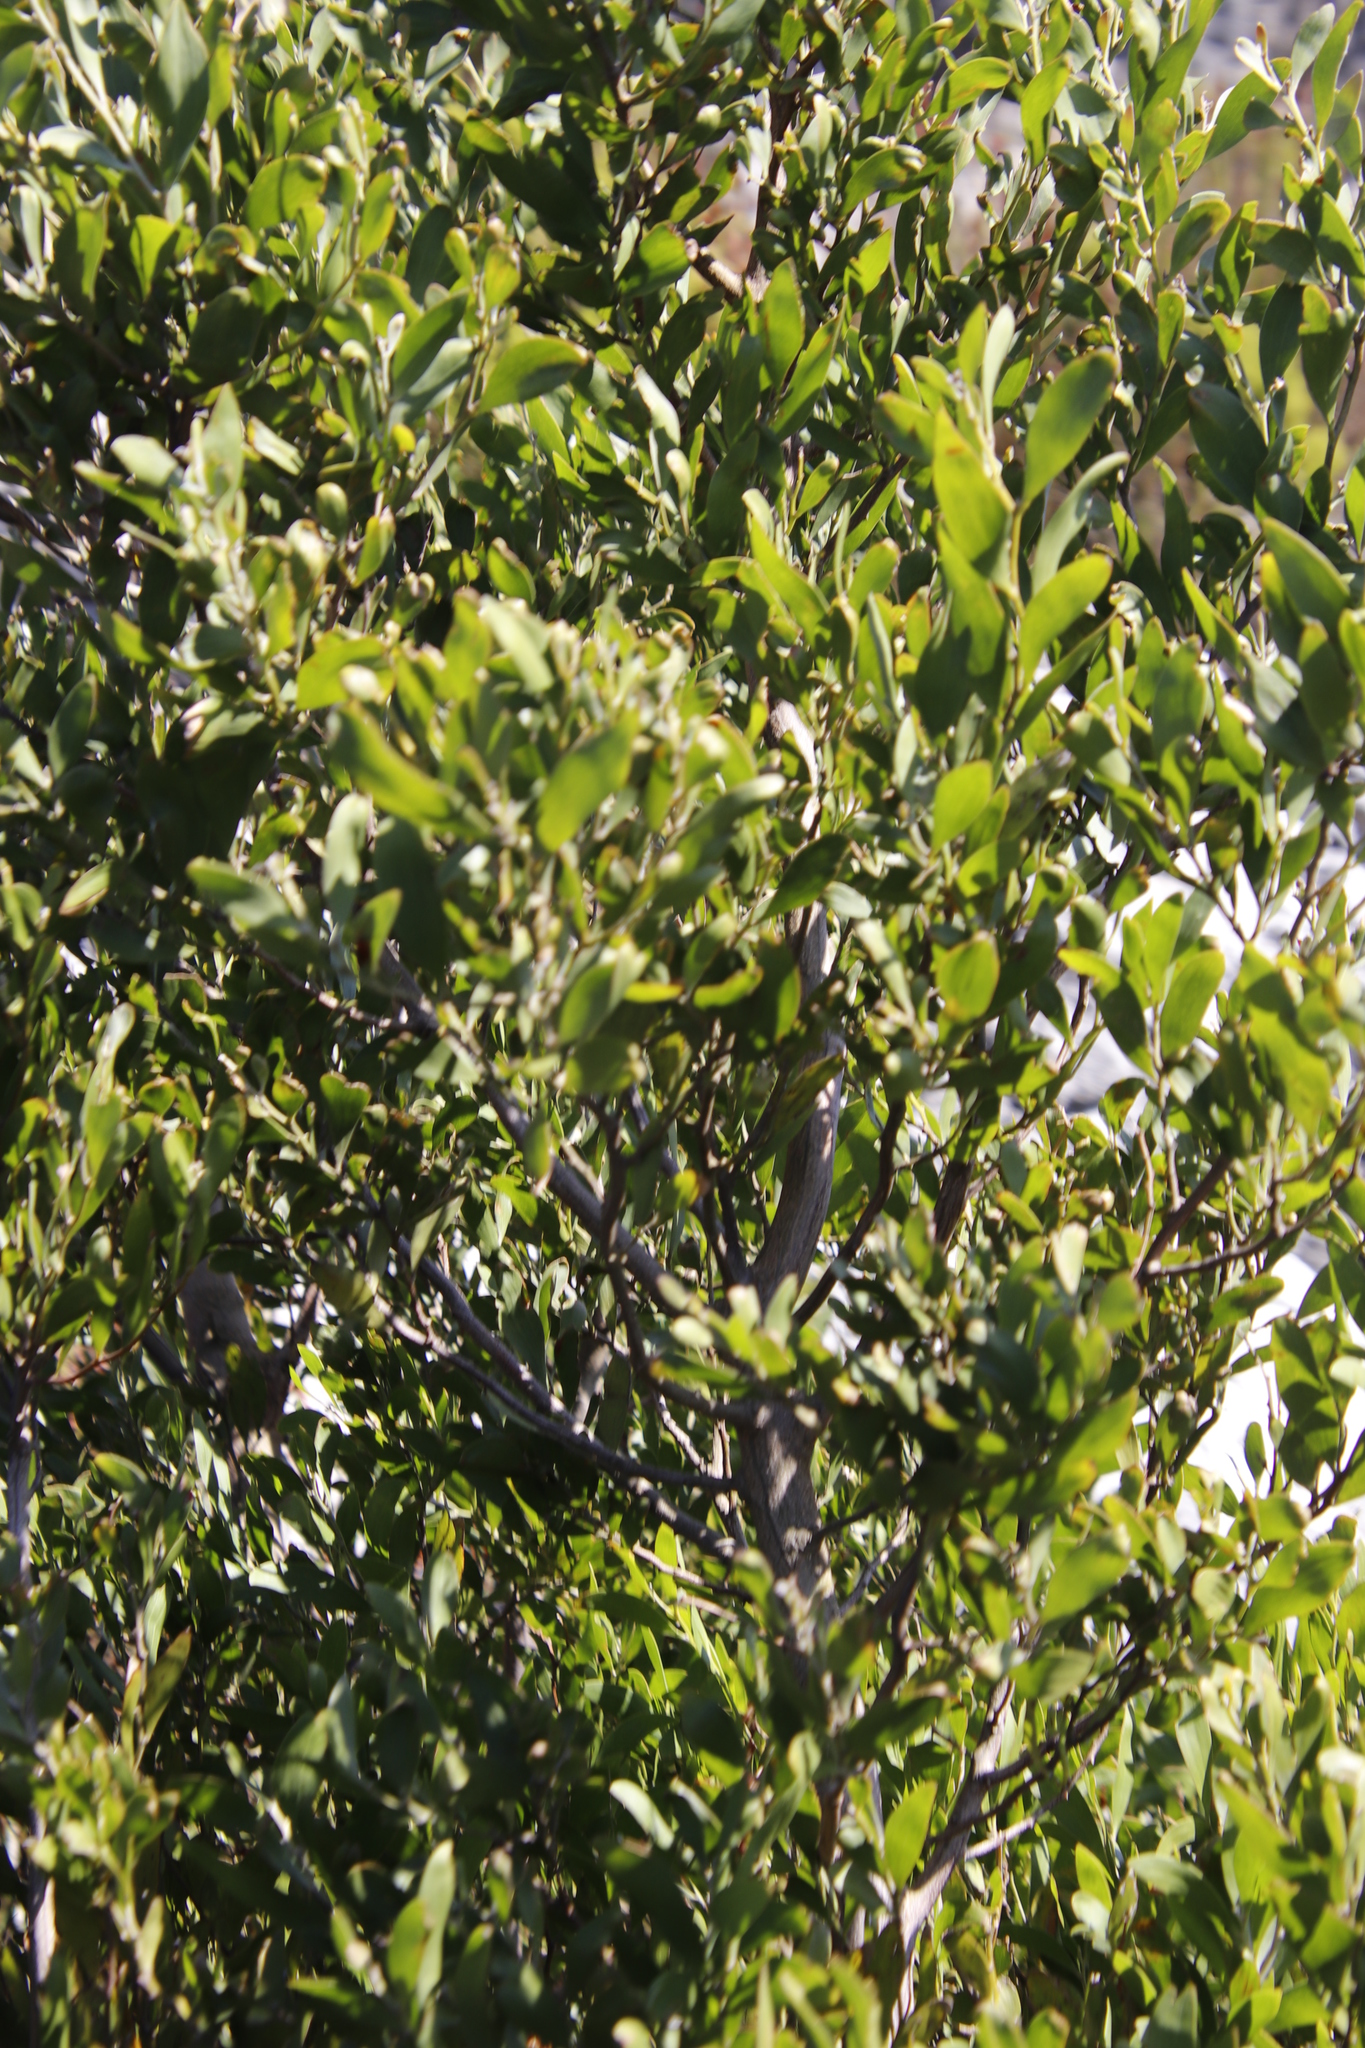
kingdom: Plantae
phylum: Tracheophyta
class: Magnoliopsida
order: Fabales
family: Fabaceae
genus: Acacia
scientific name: Acacia melanoxylon
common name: Blackwood
